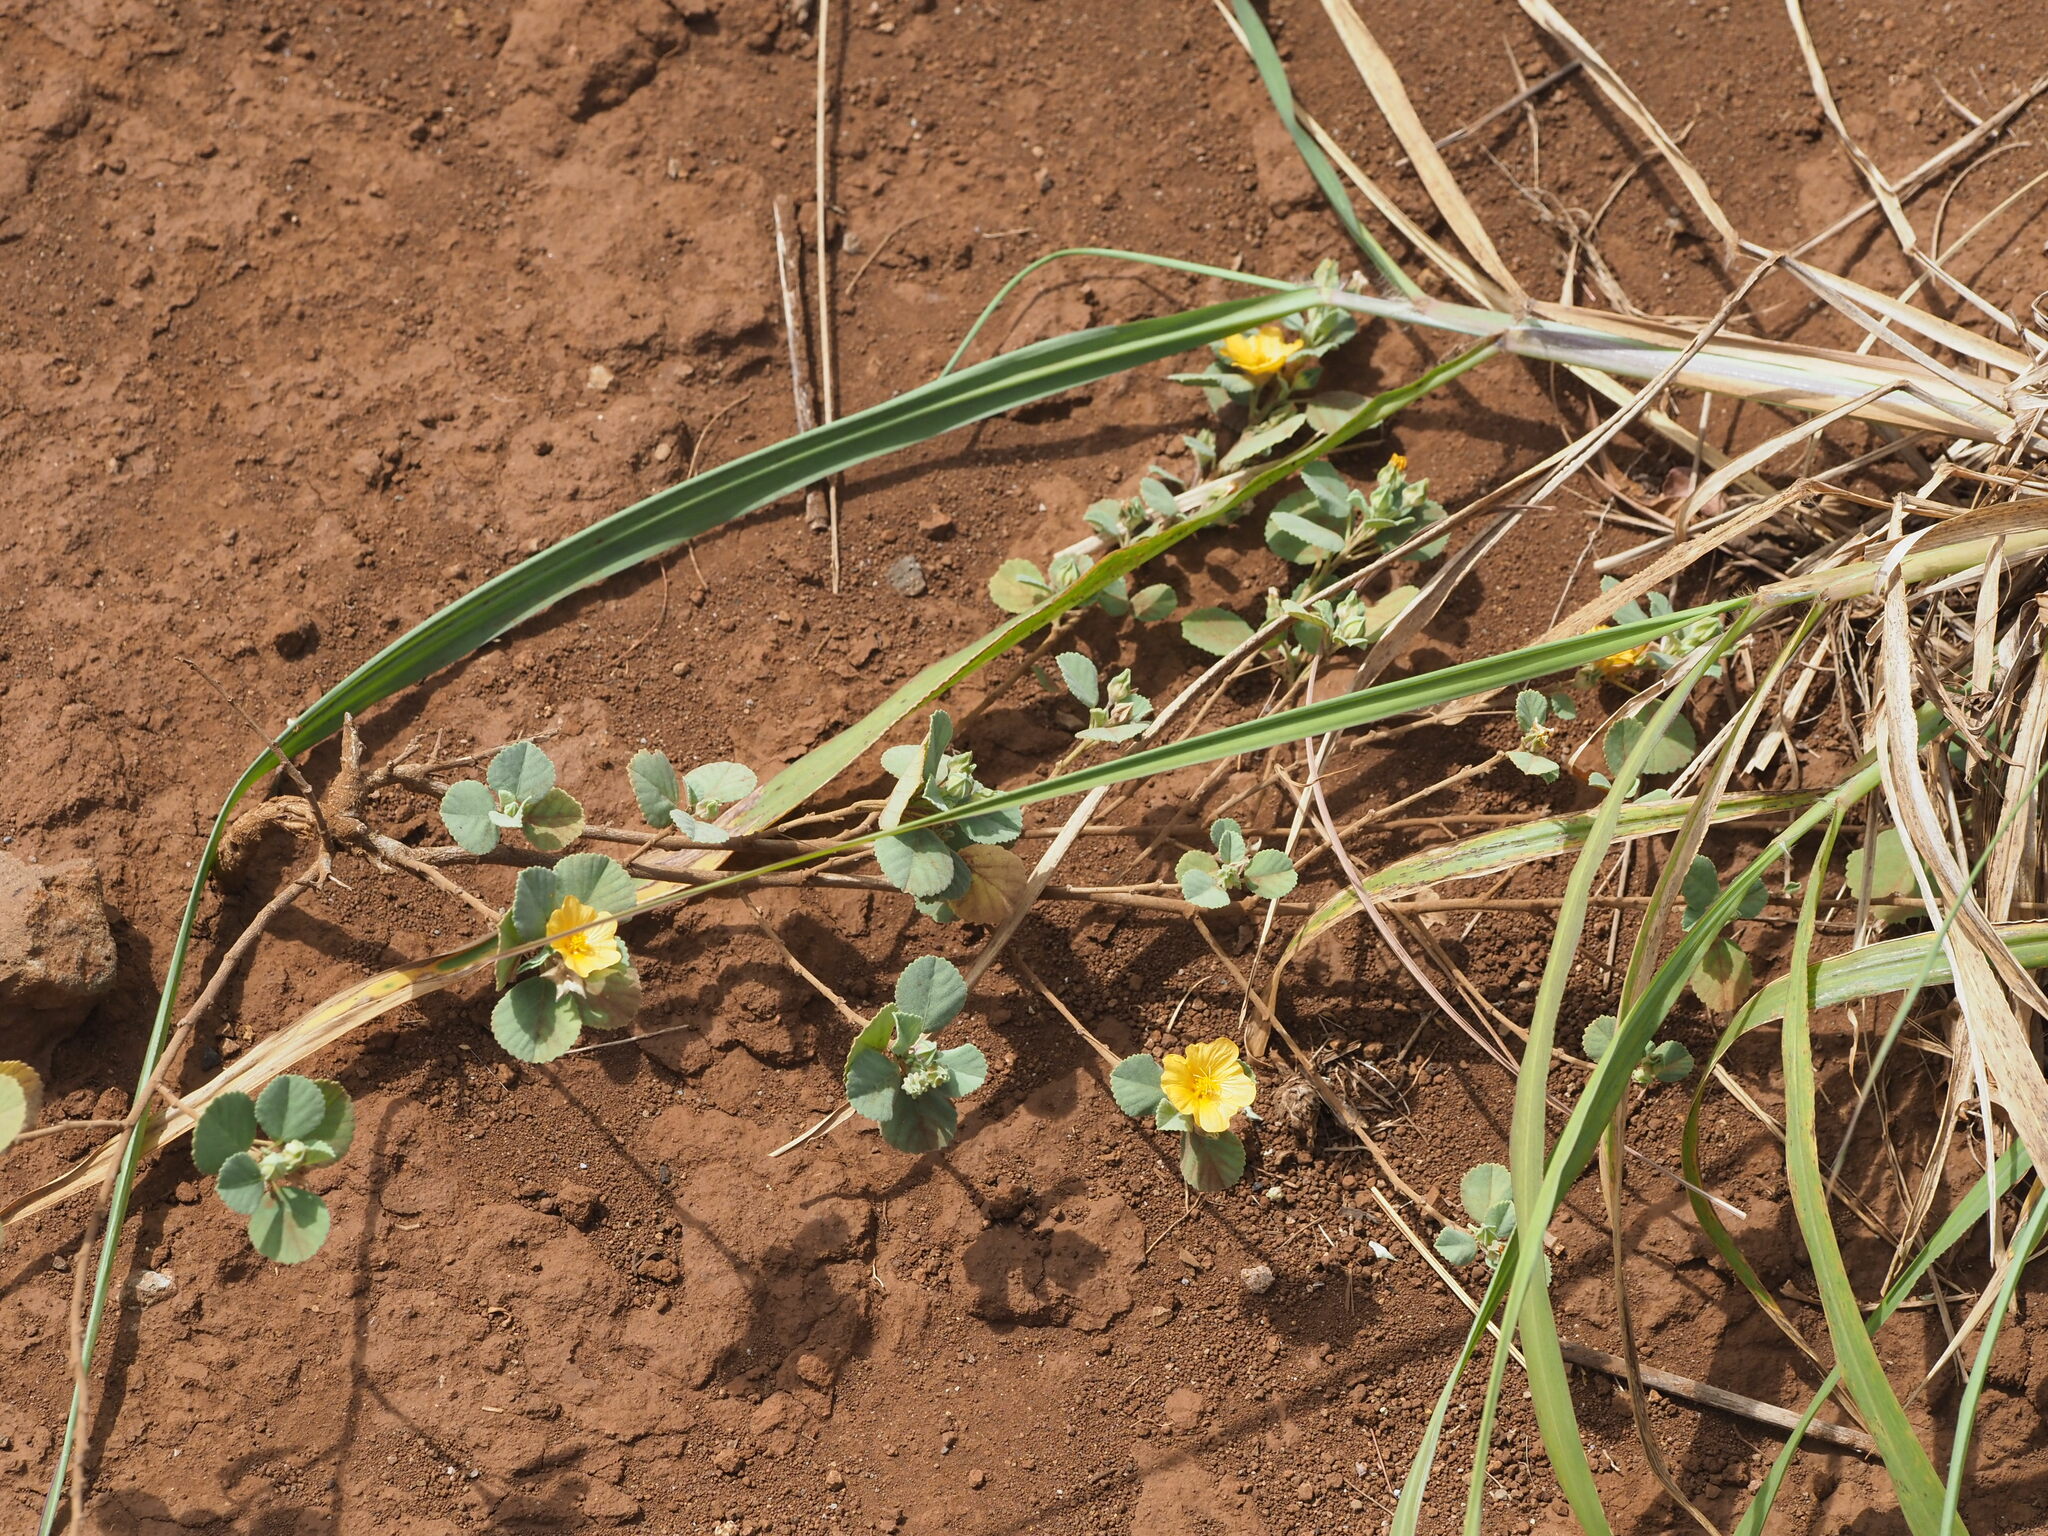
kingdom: Plantae
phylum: Tracheophyta
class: Magnoliopsida
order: Malvales
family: Malvaceae
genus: Sida
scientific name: Sida fallax
